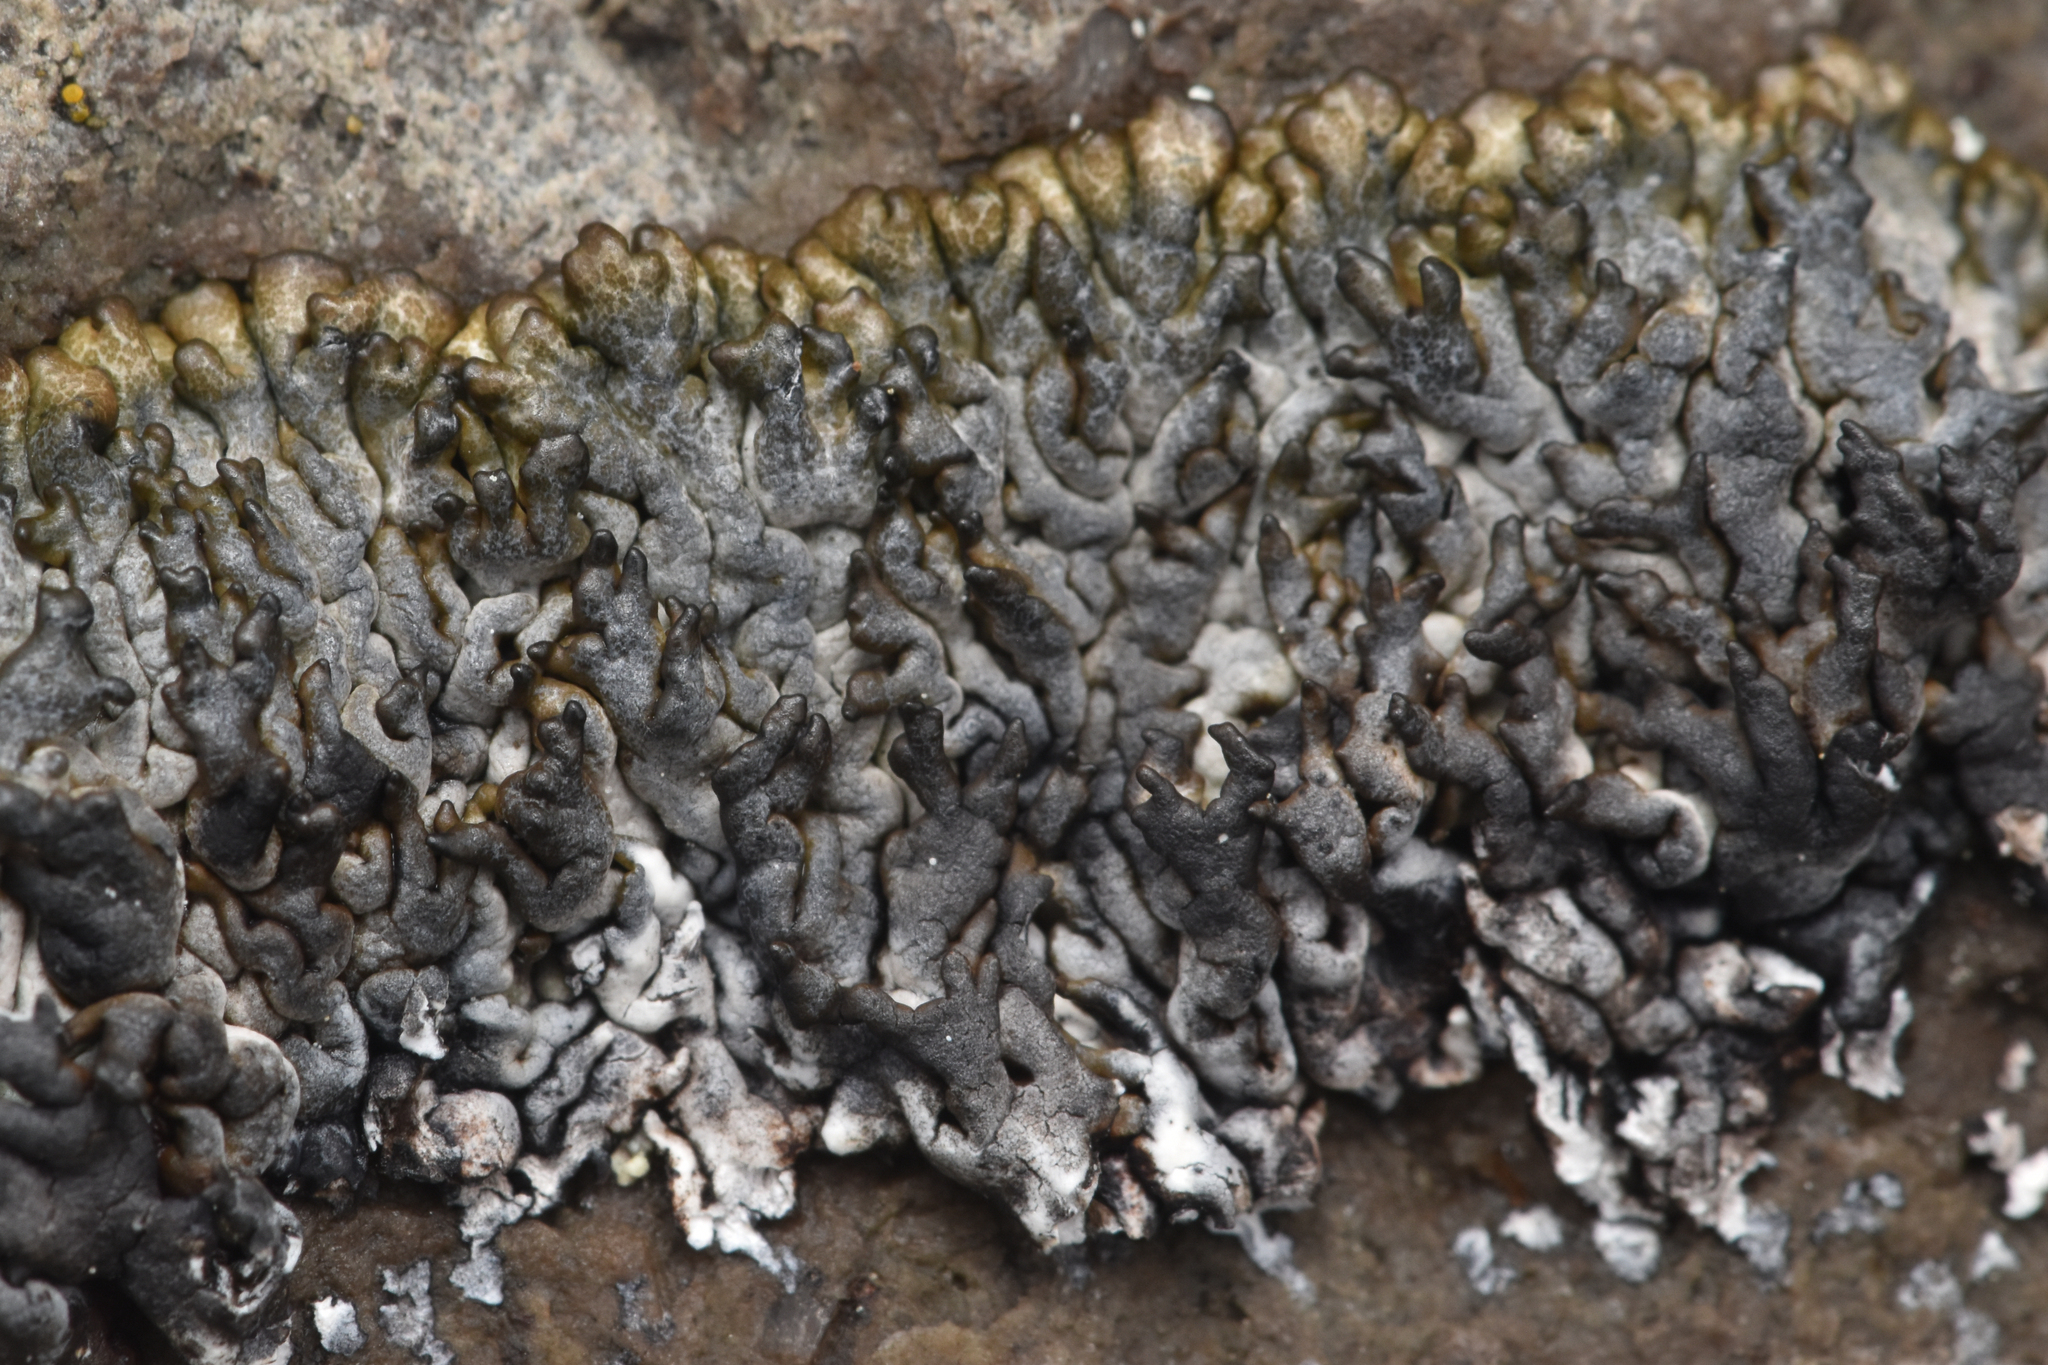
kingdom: Fungi
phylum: Ascomycota
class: Lecanoromycetes
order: Lecanorales
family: Parmeliaceae
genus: Brodoa
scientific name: Brodoa oroarctica
